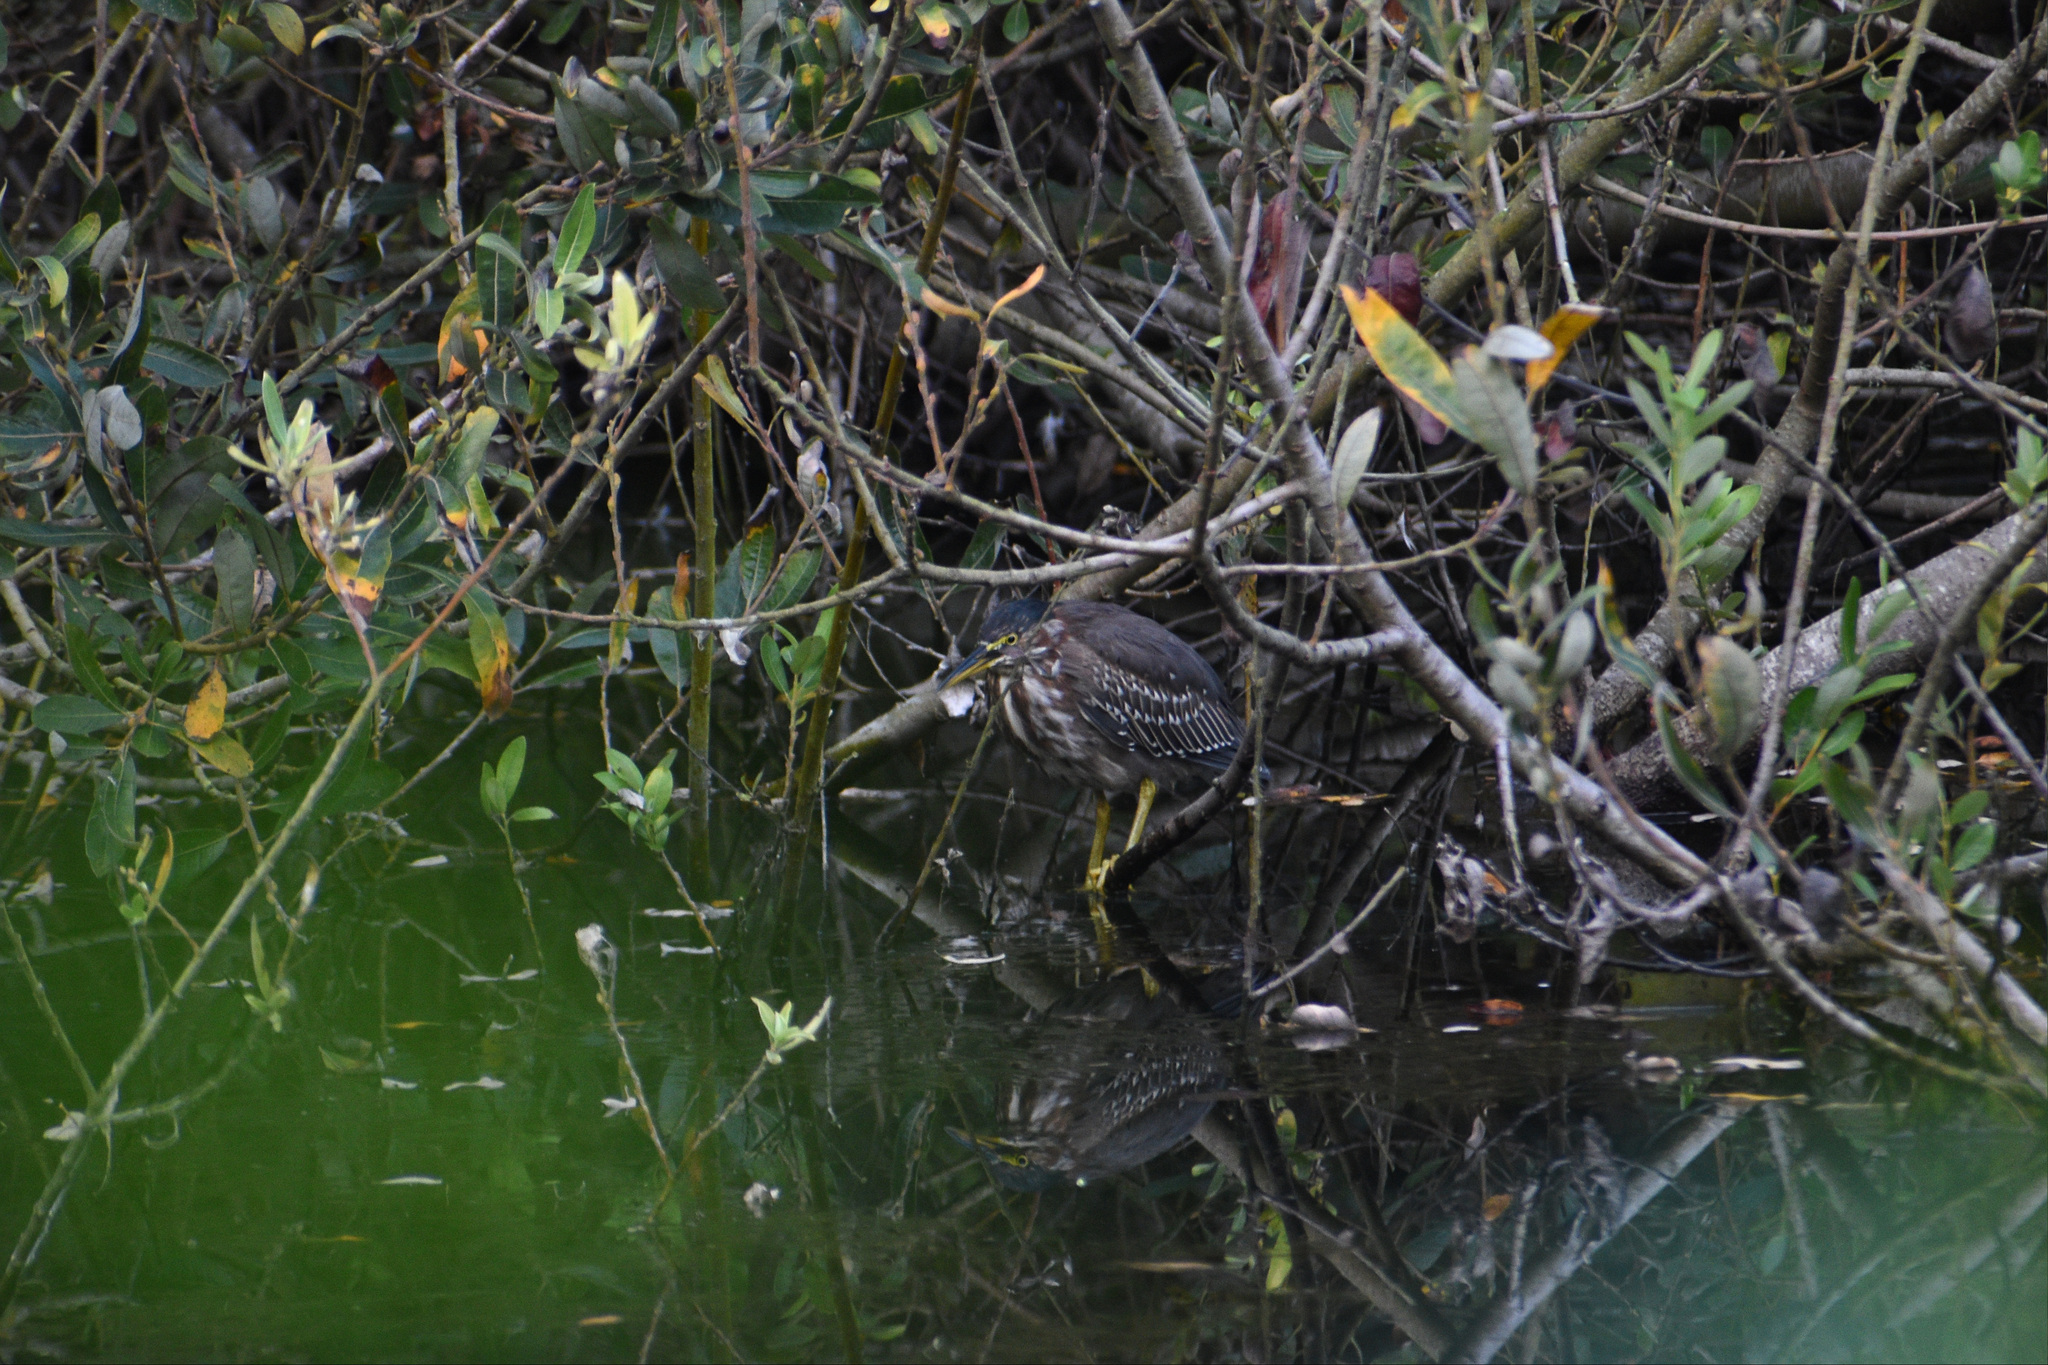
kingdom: Animalia
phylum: Chordata
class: Aves
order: Pelecaniformes
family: Ardeidae
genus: Butorides
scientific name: Butorides virescens
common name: Green heron
